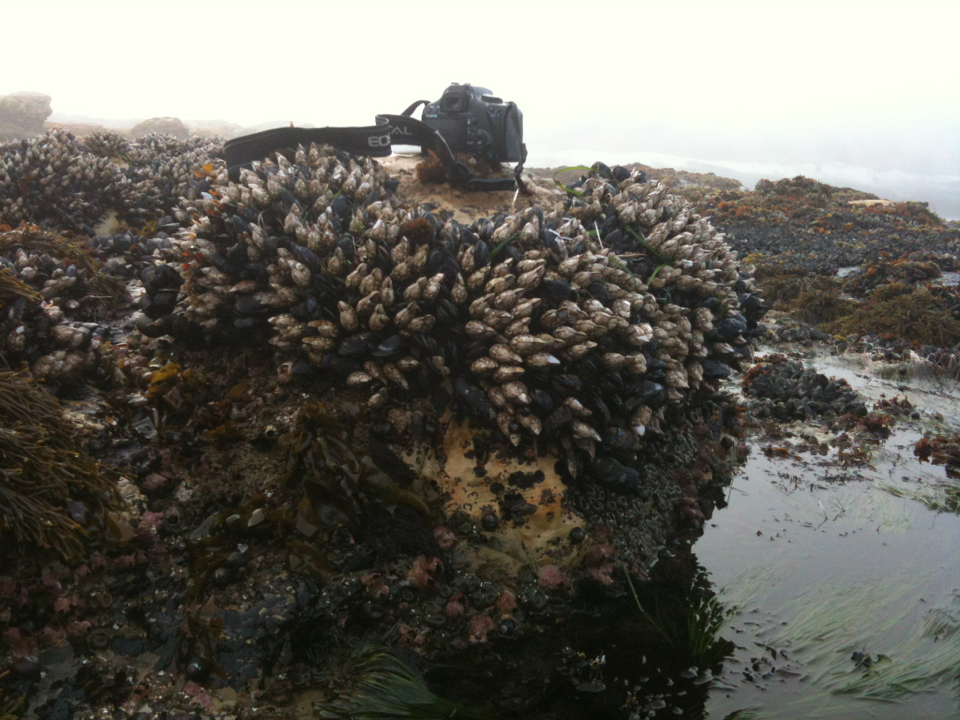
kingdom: Animalia
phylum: Arthropoda
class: Maxillopoda
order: Pedunculata
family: Pollicipedidae
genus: Pollicipes
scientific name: Pollicipes polymerus
